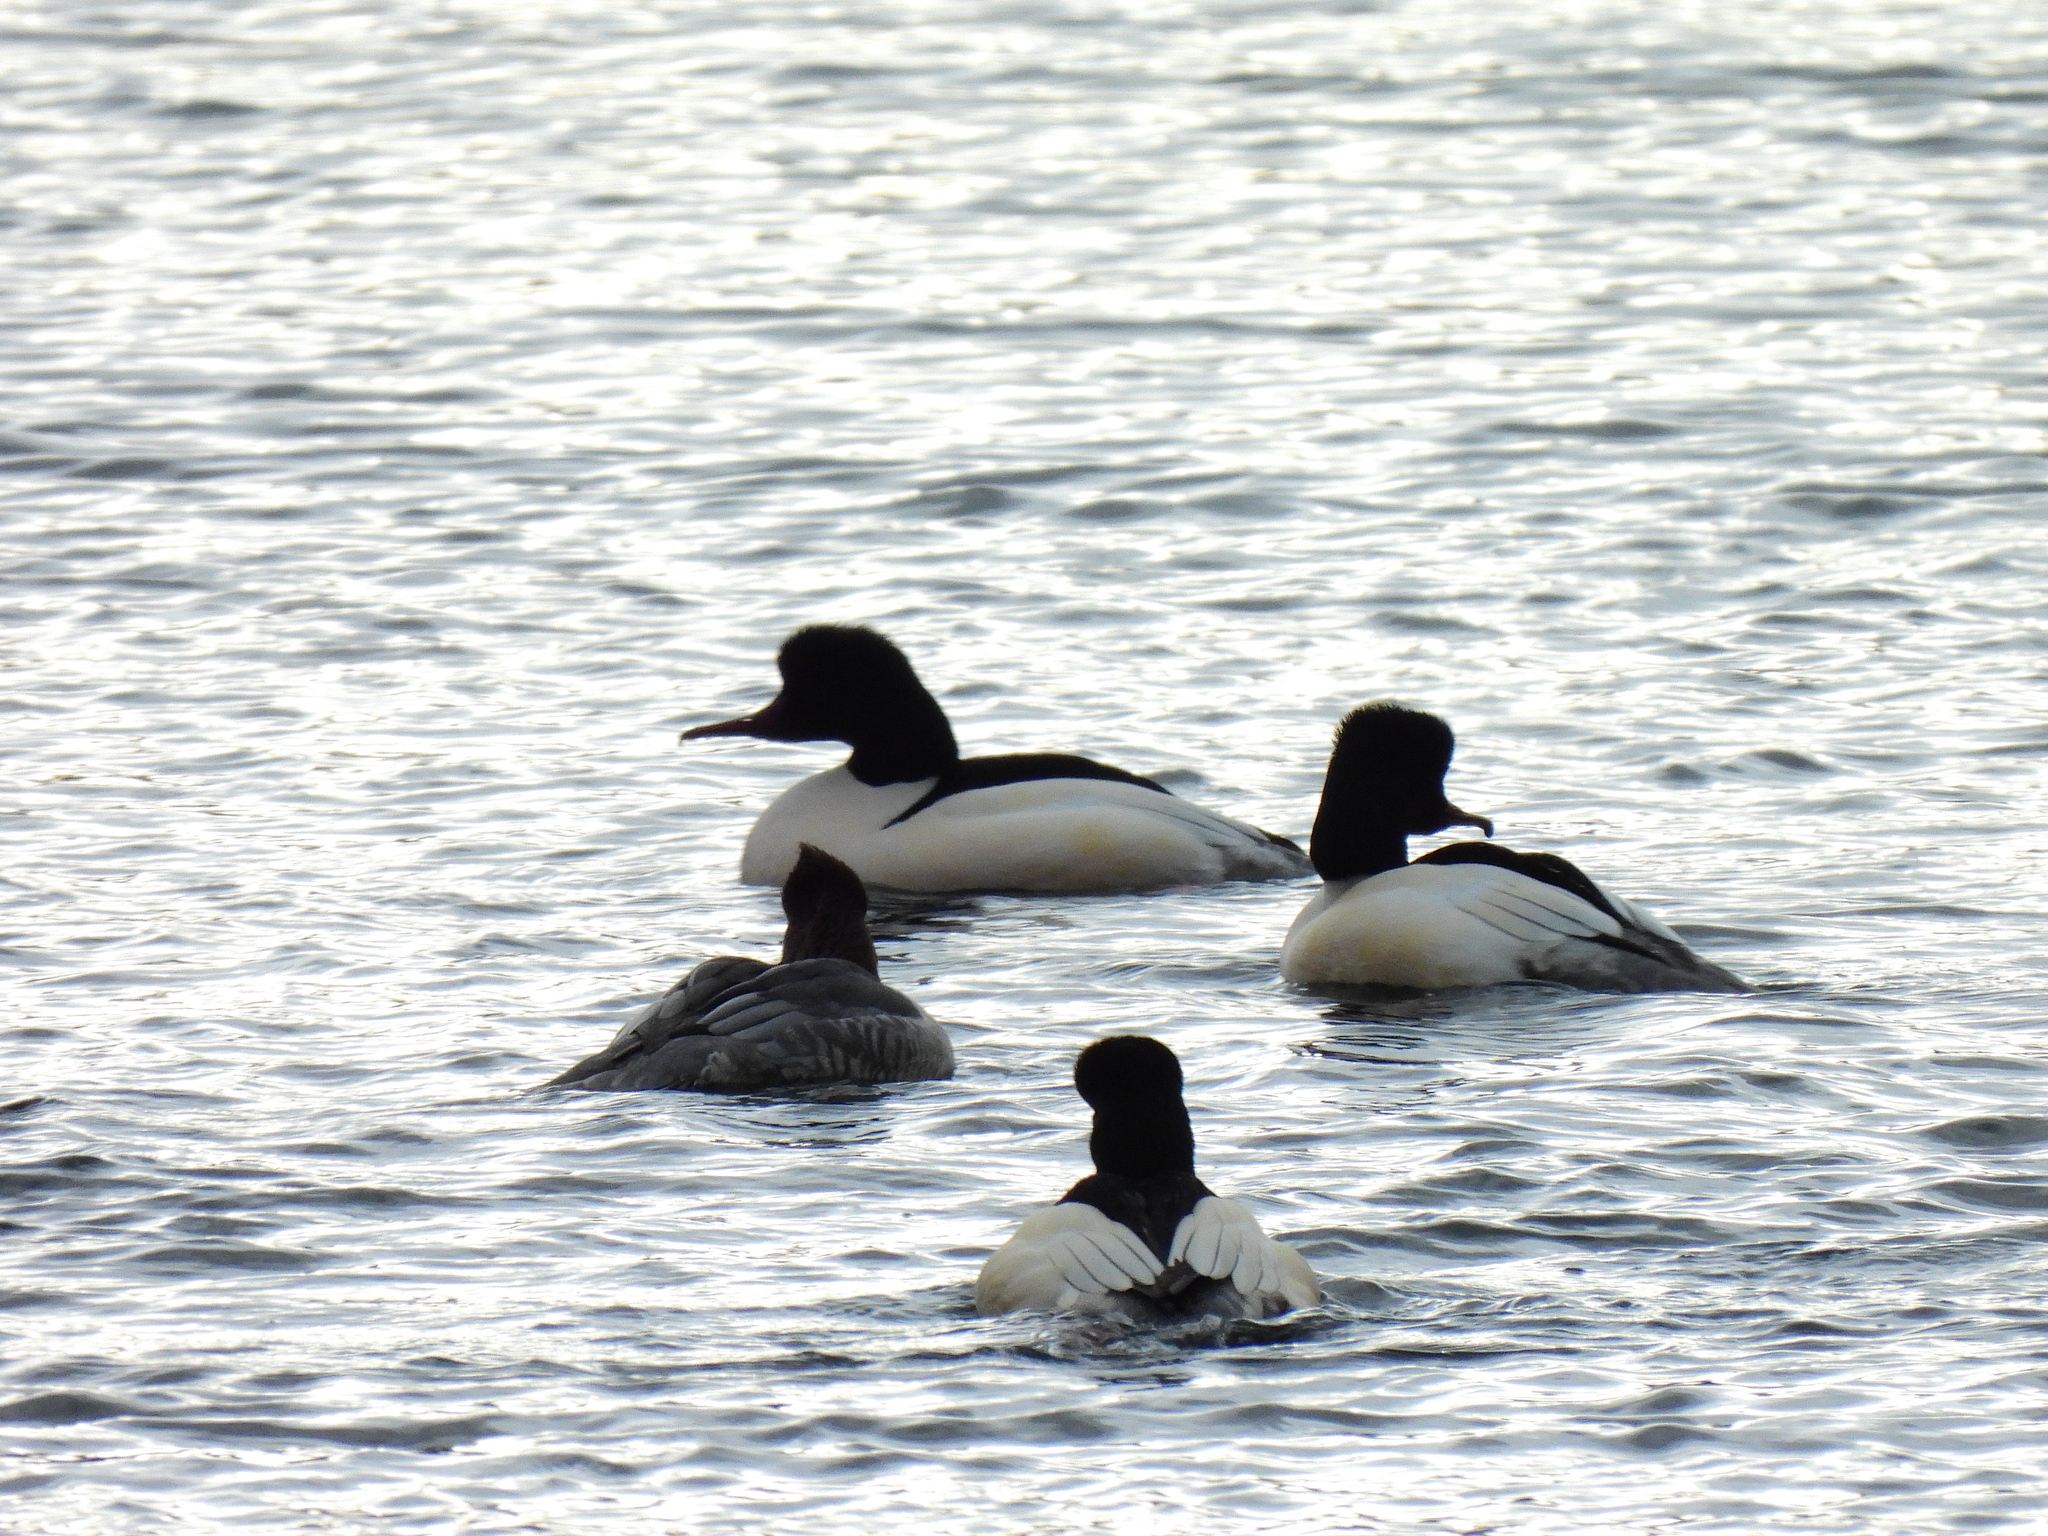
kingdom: Animalia
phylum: Chordata
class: Aves
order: Anseriformes
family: Anatidae
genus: Mergus
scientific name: Mergus merganser
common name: Common merganser
